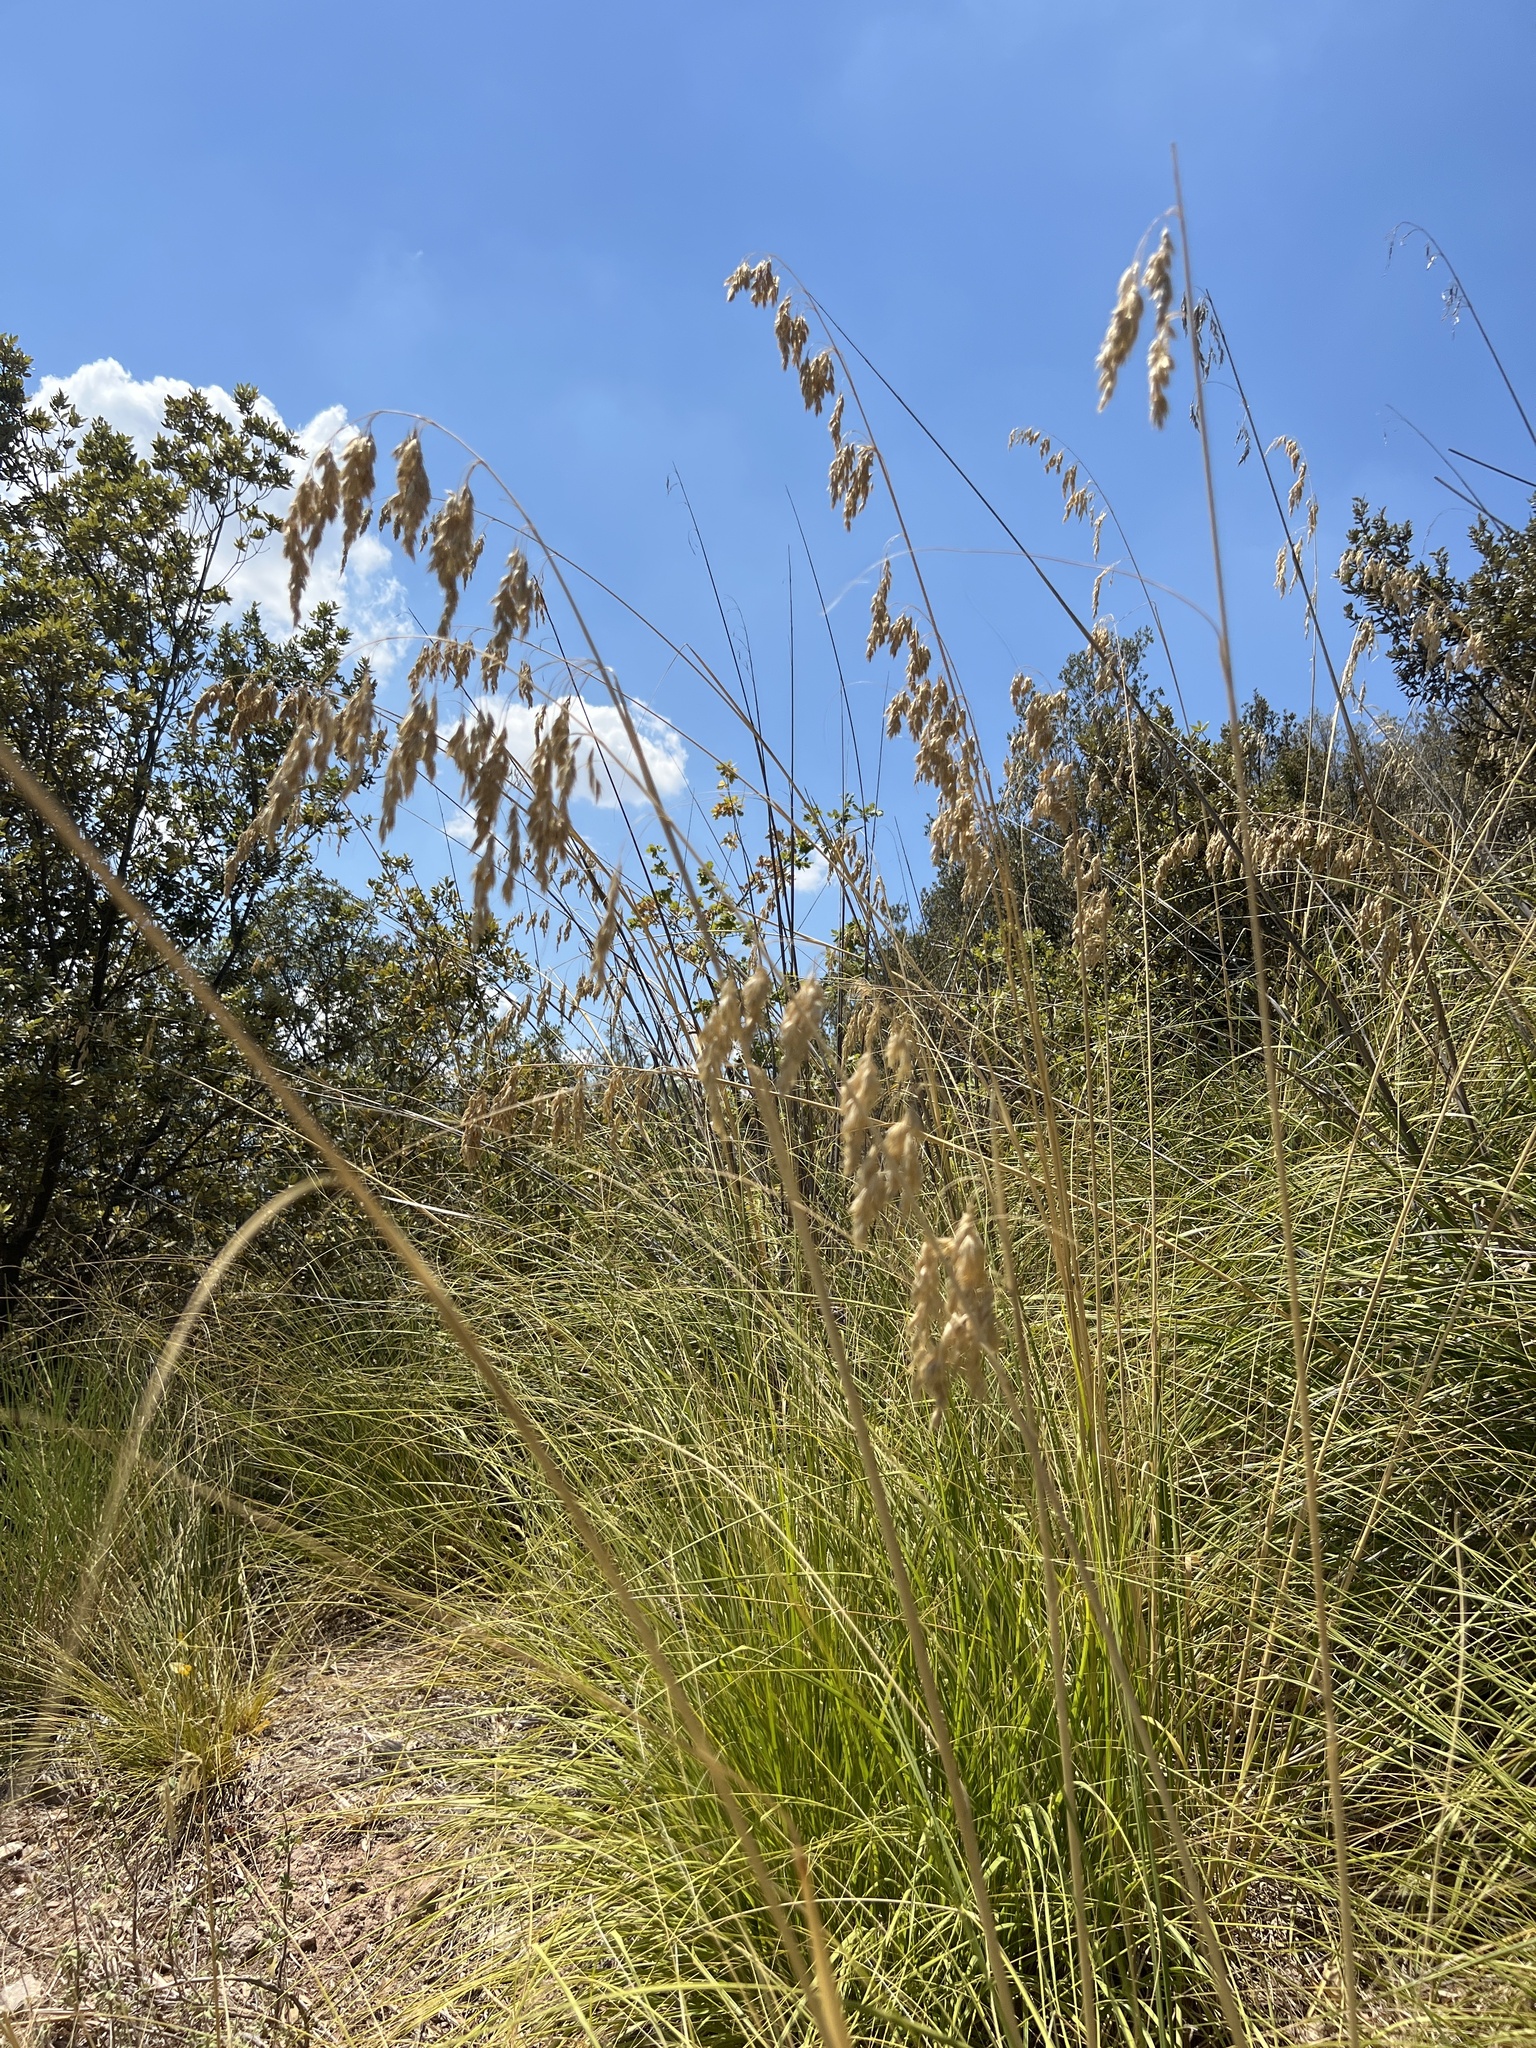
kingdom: Plantae
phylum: Tracheophyta
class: Liliopsida
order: Poales
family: Poaceae
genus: Ampelodesmos
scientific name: Ampelodesmos mauritanicus
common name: Mauritanian grass
